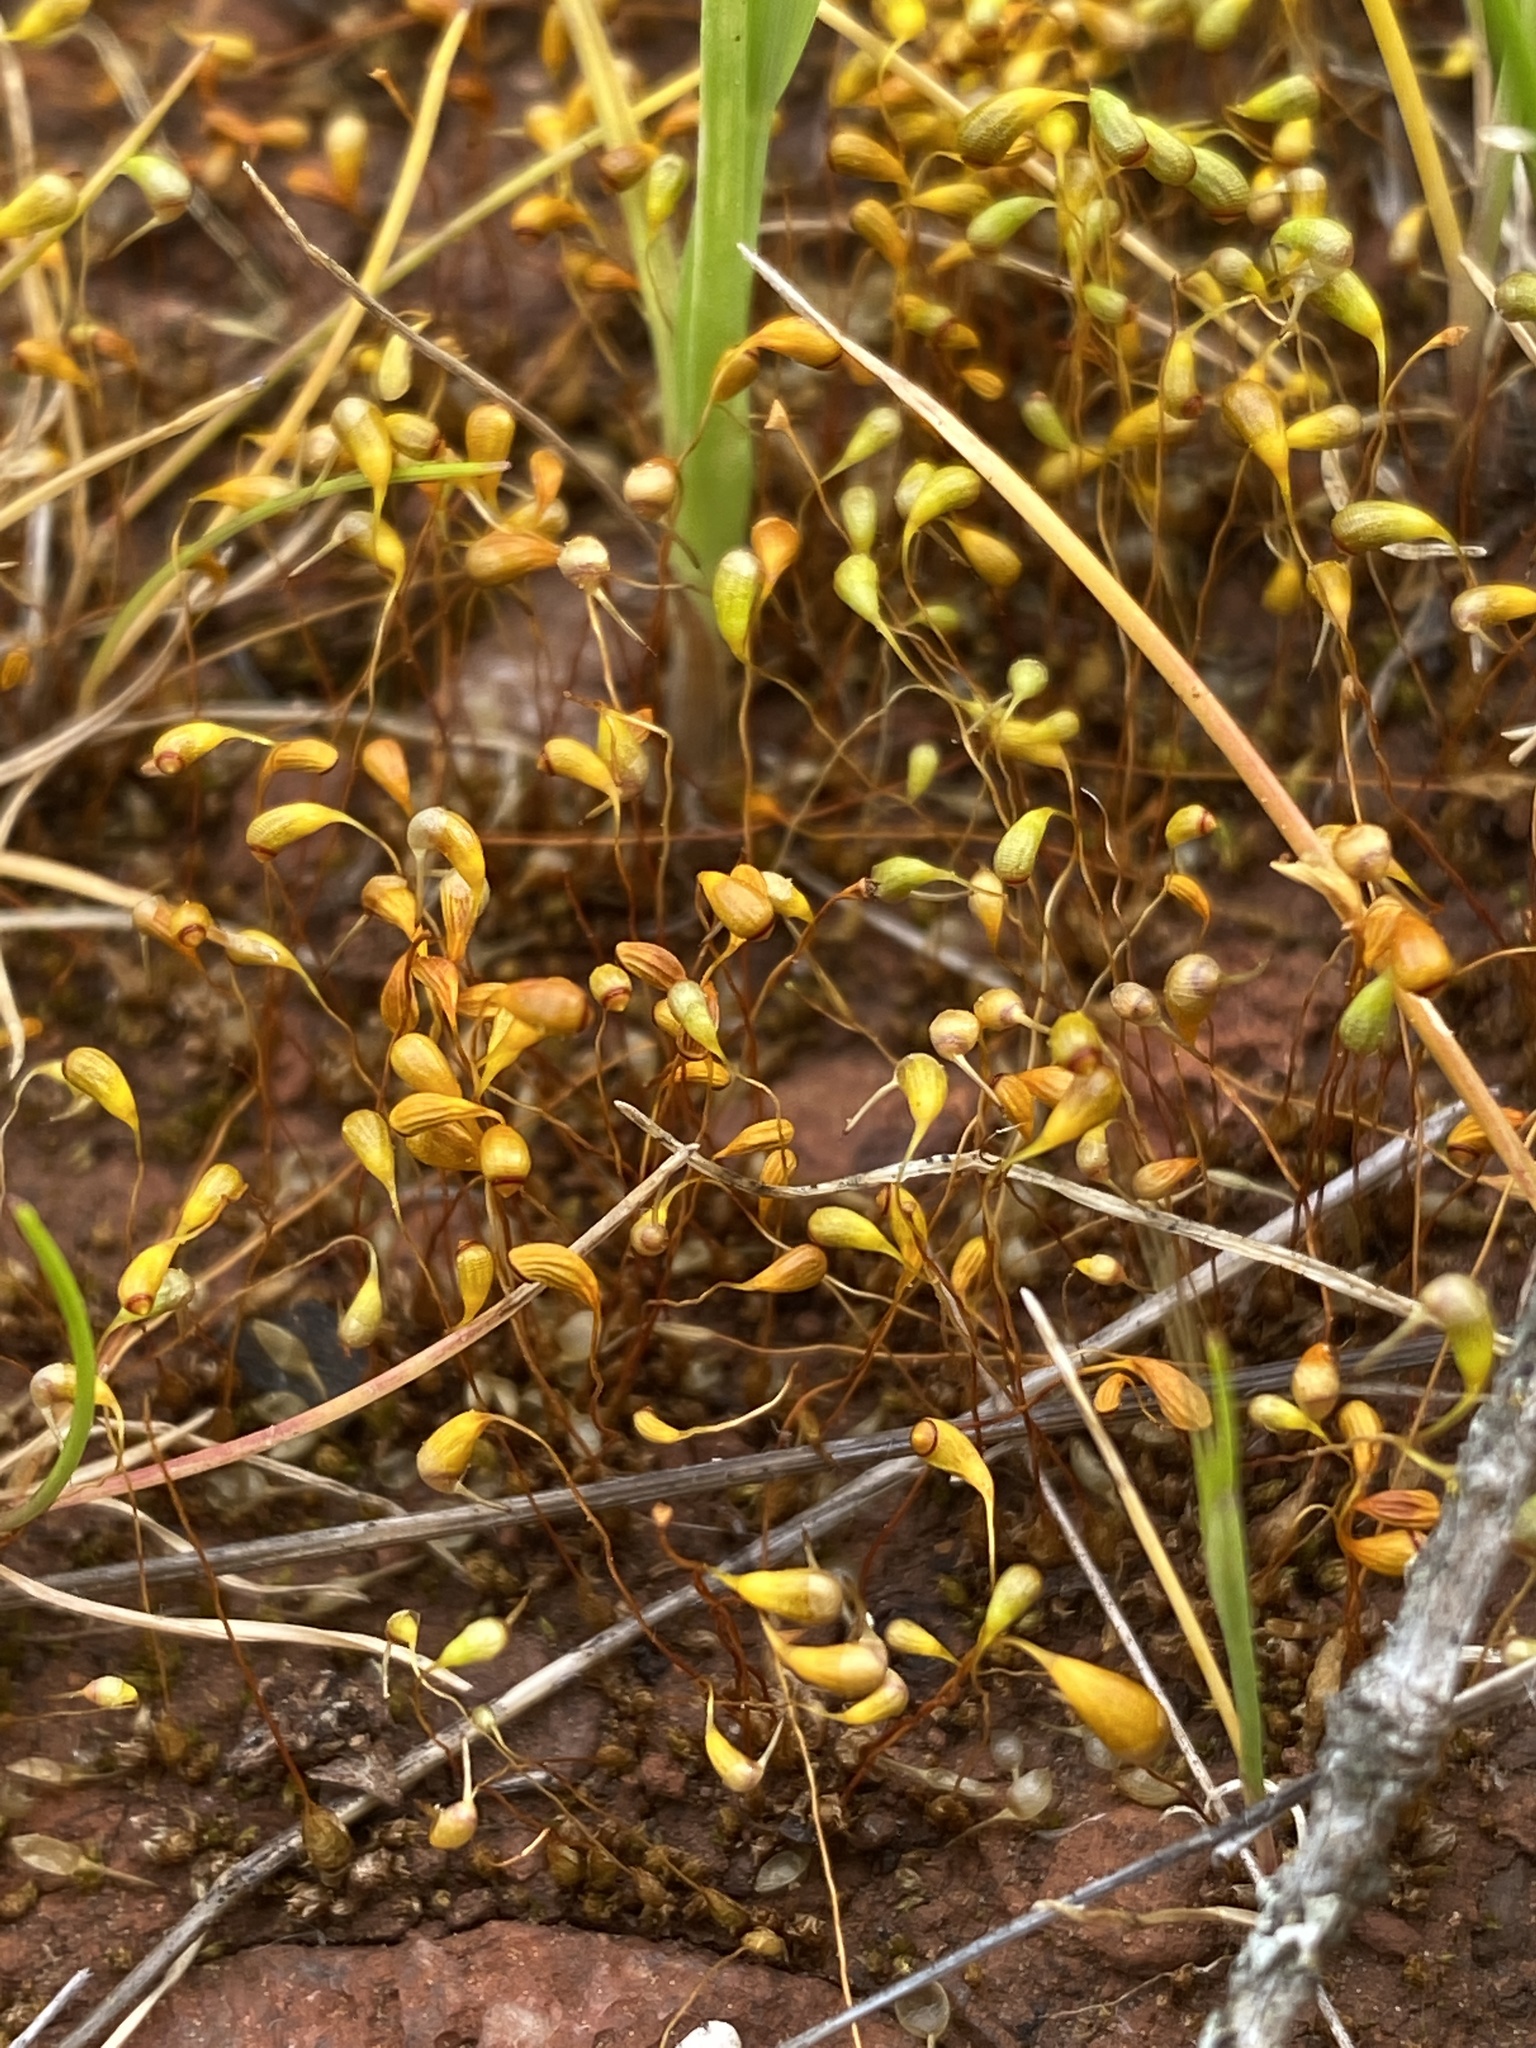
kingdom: Plantae
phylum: Bryophyta
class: Bryopsida
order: Funariales
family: Funariaceae
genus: Funaria
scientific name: Funaria hygrometrica
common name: Common cord moss
